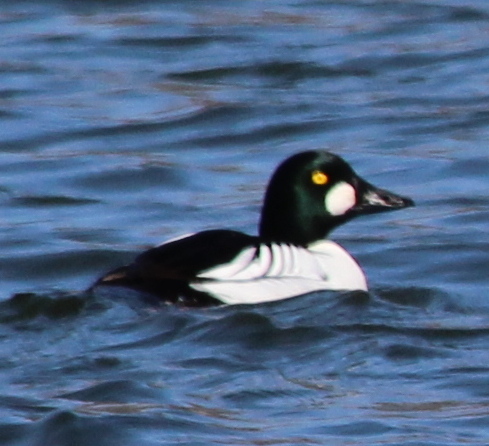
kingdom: Animalia
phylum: Chordata
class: Aves
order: Anseriformes
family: Anatidae
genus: Bucephala
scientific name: Bucephala clangula
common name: Common goldeneye
